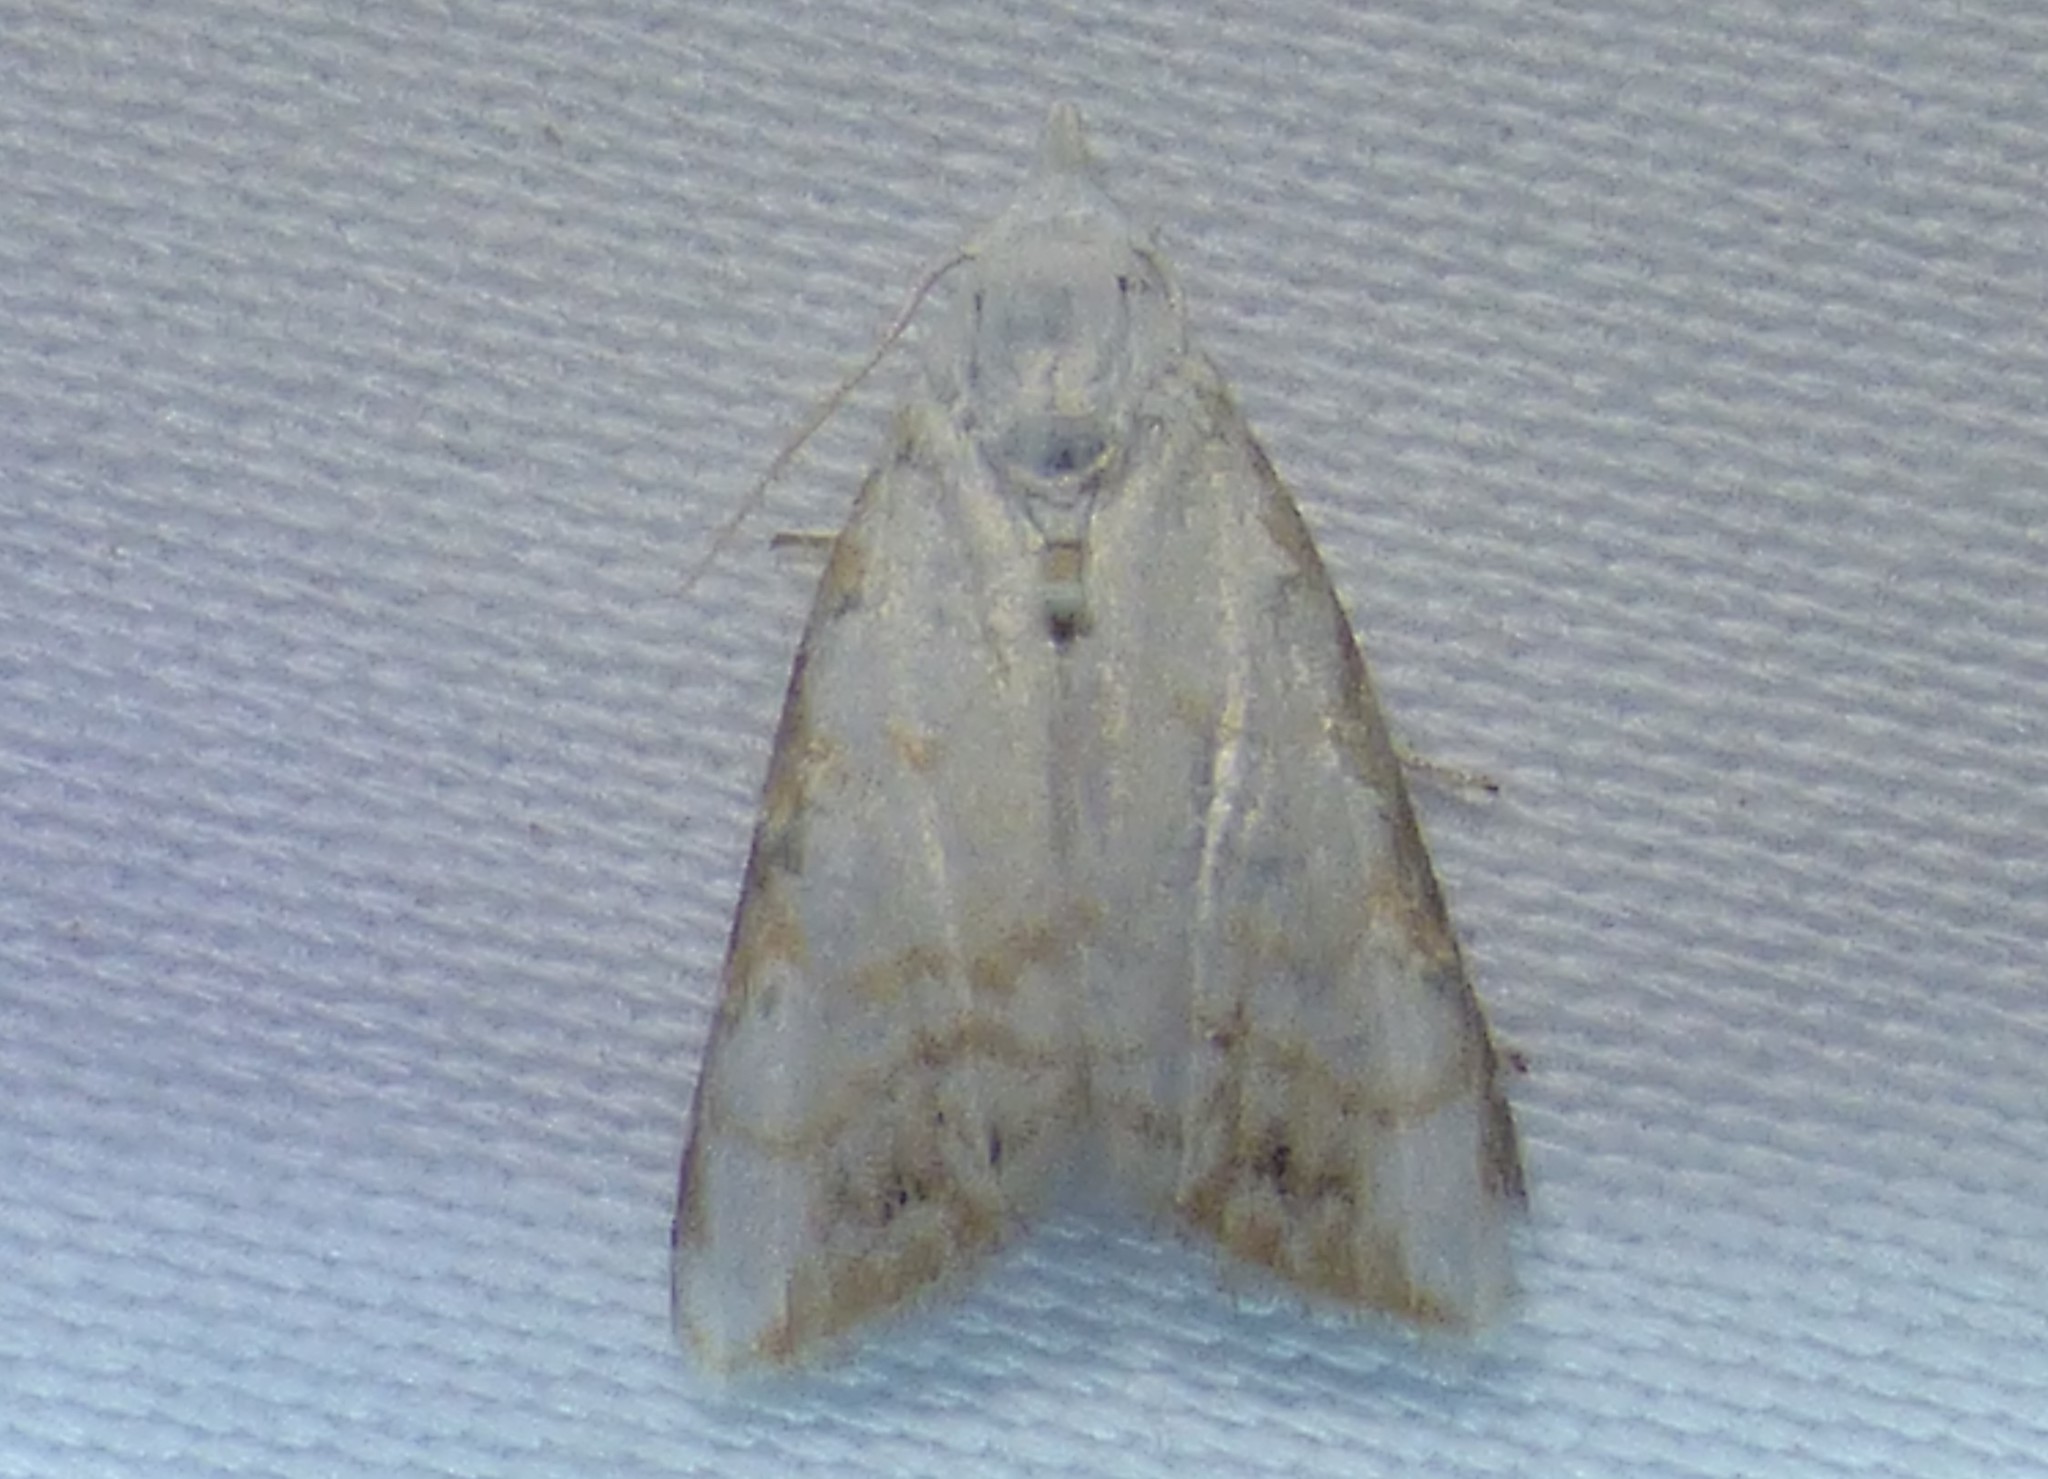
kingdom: Animalia
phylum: Arthropoda
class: Insecta
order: Lepidoptera
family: Nolidae
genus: Nola
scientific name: Nola cereella
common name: Sorghum webworm moth
